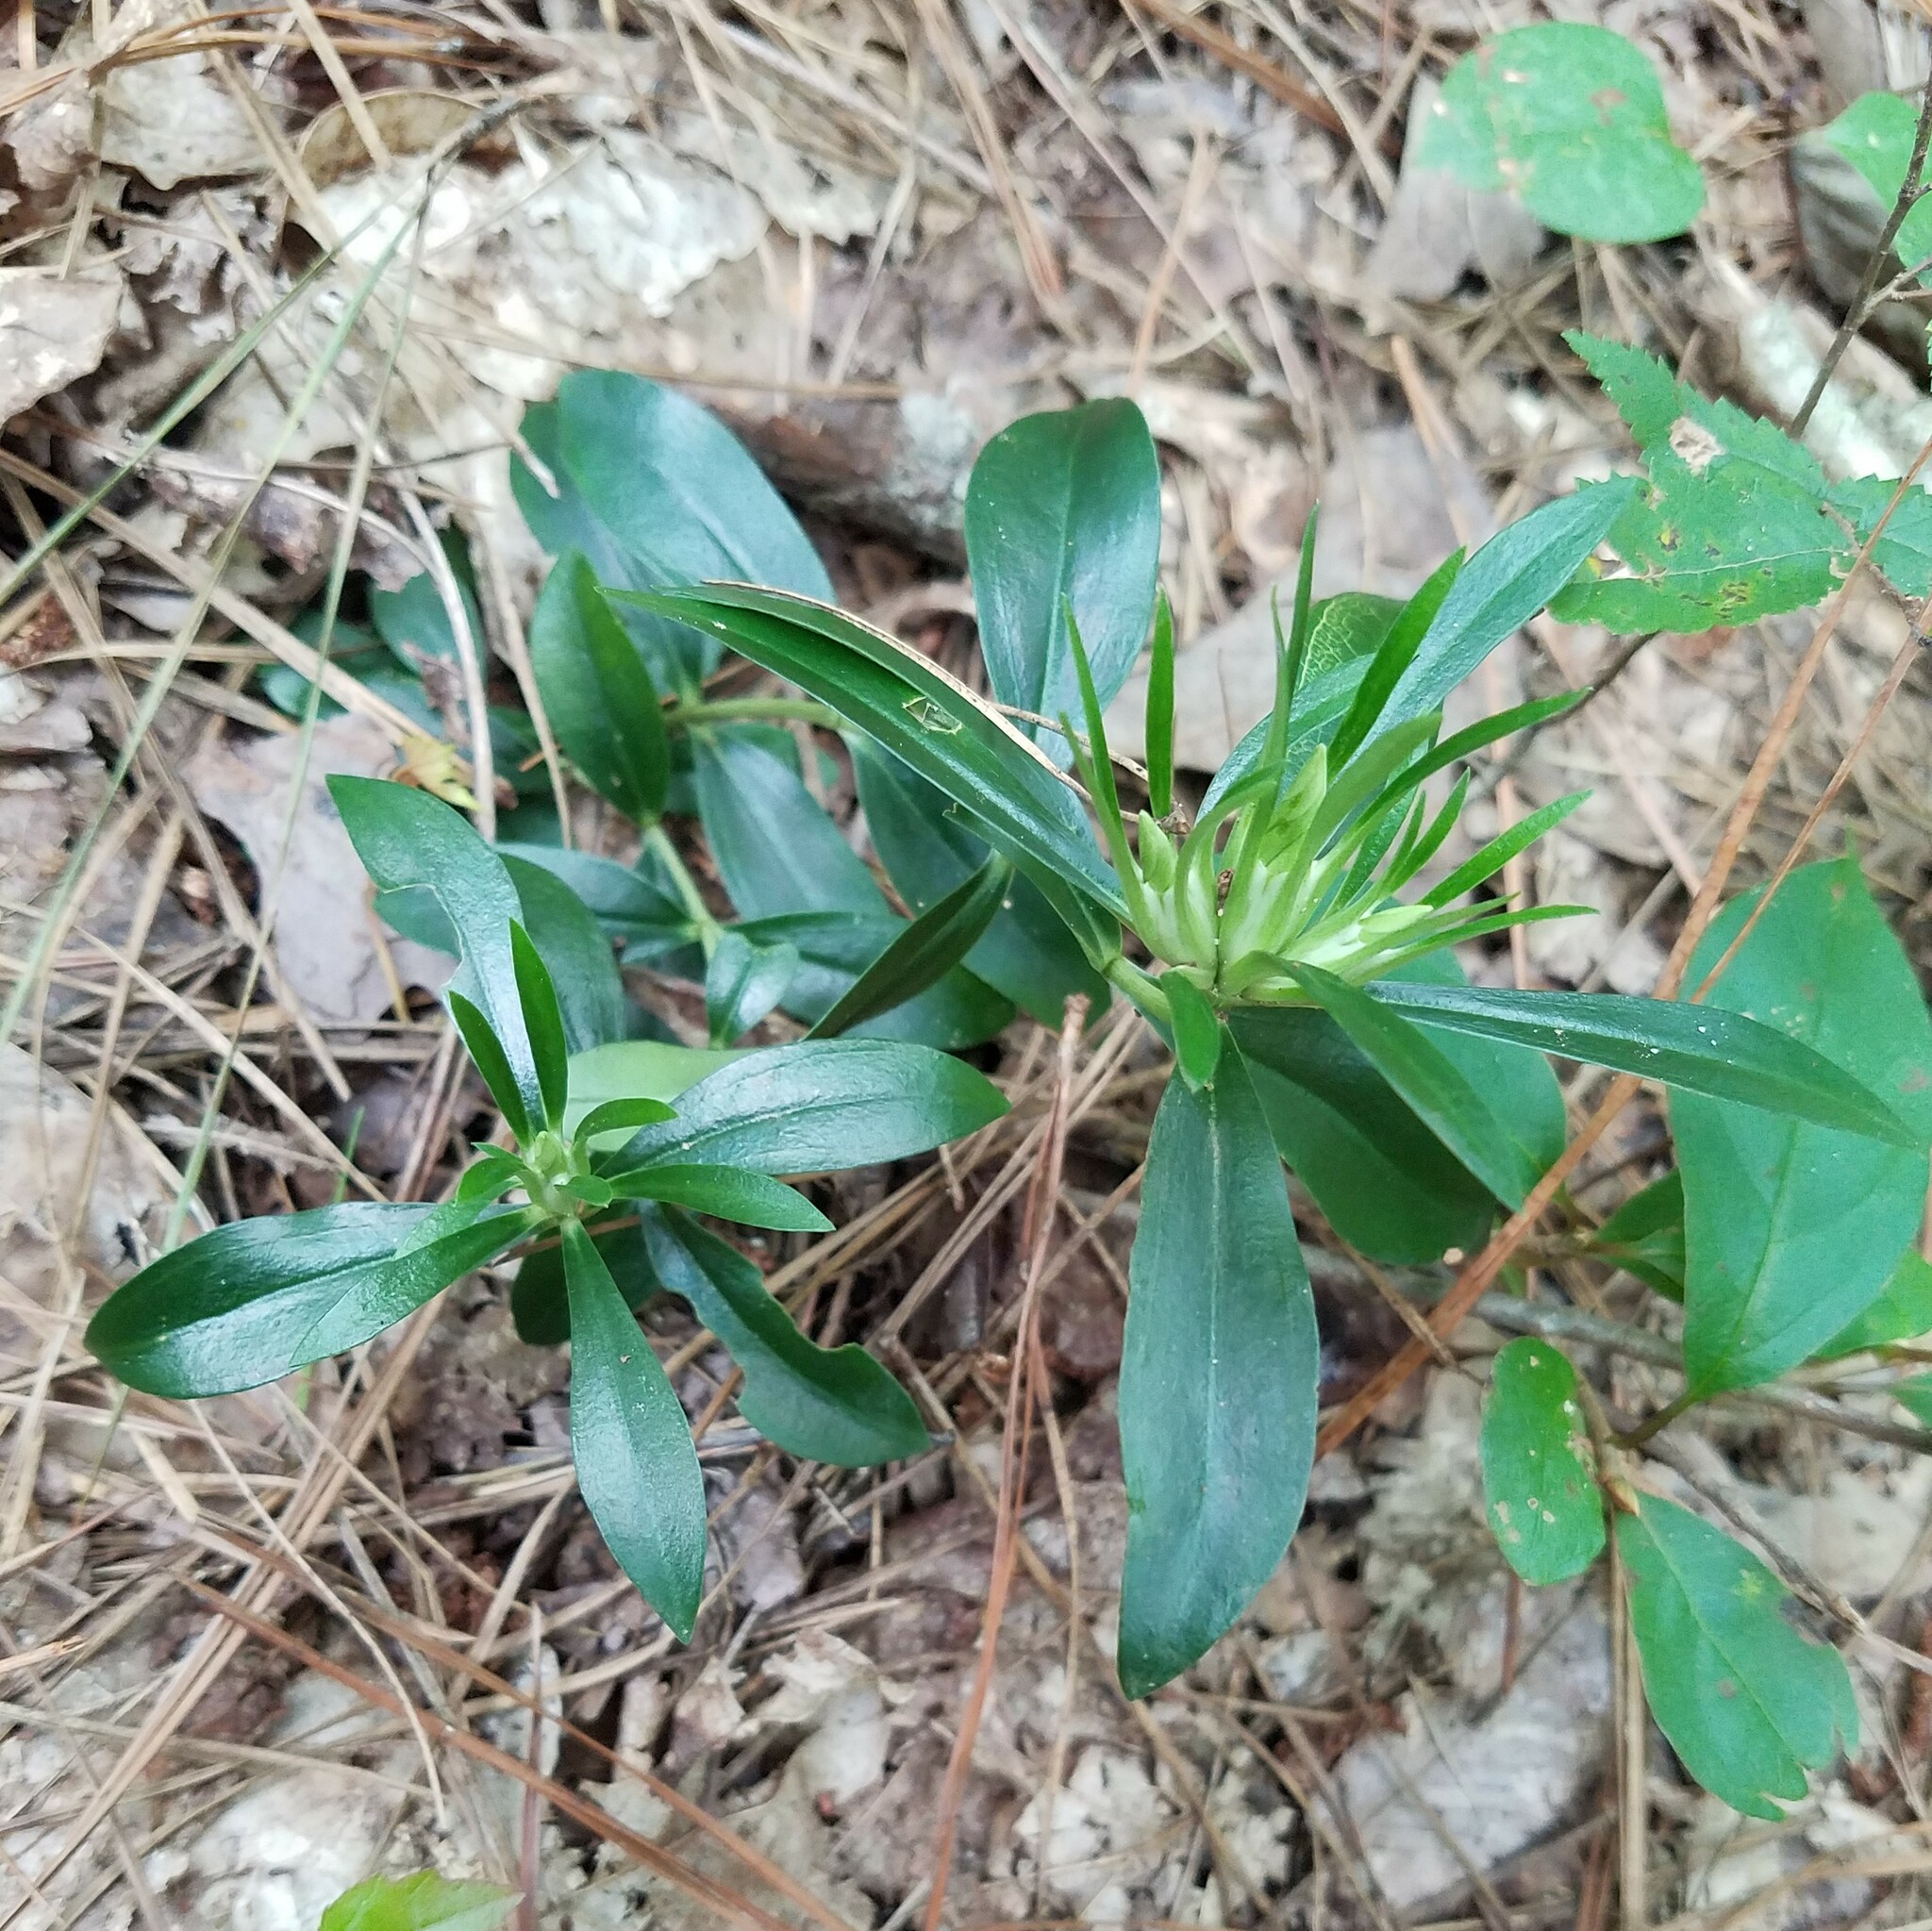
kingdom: Plantae
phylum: Tracheophyta
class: Magnoliopsida
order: Gentianales
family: Gentianaceae
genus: Gentiana
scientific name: Gentiana villosa
